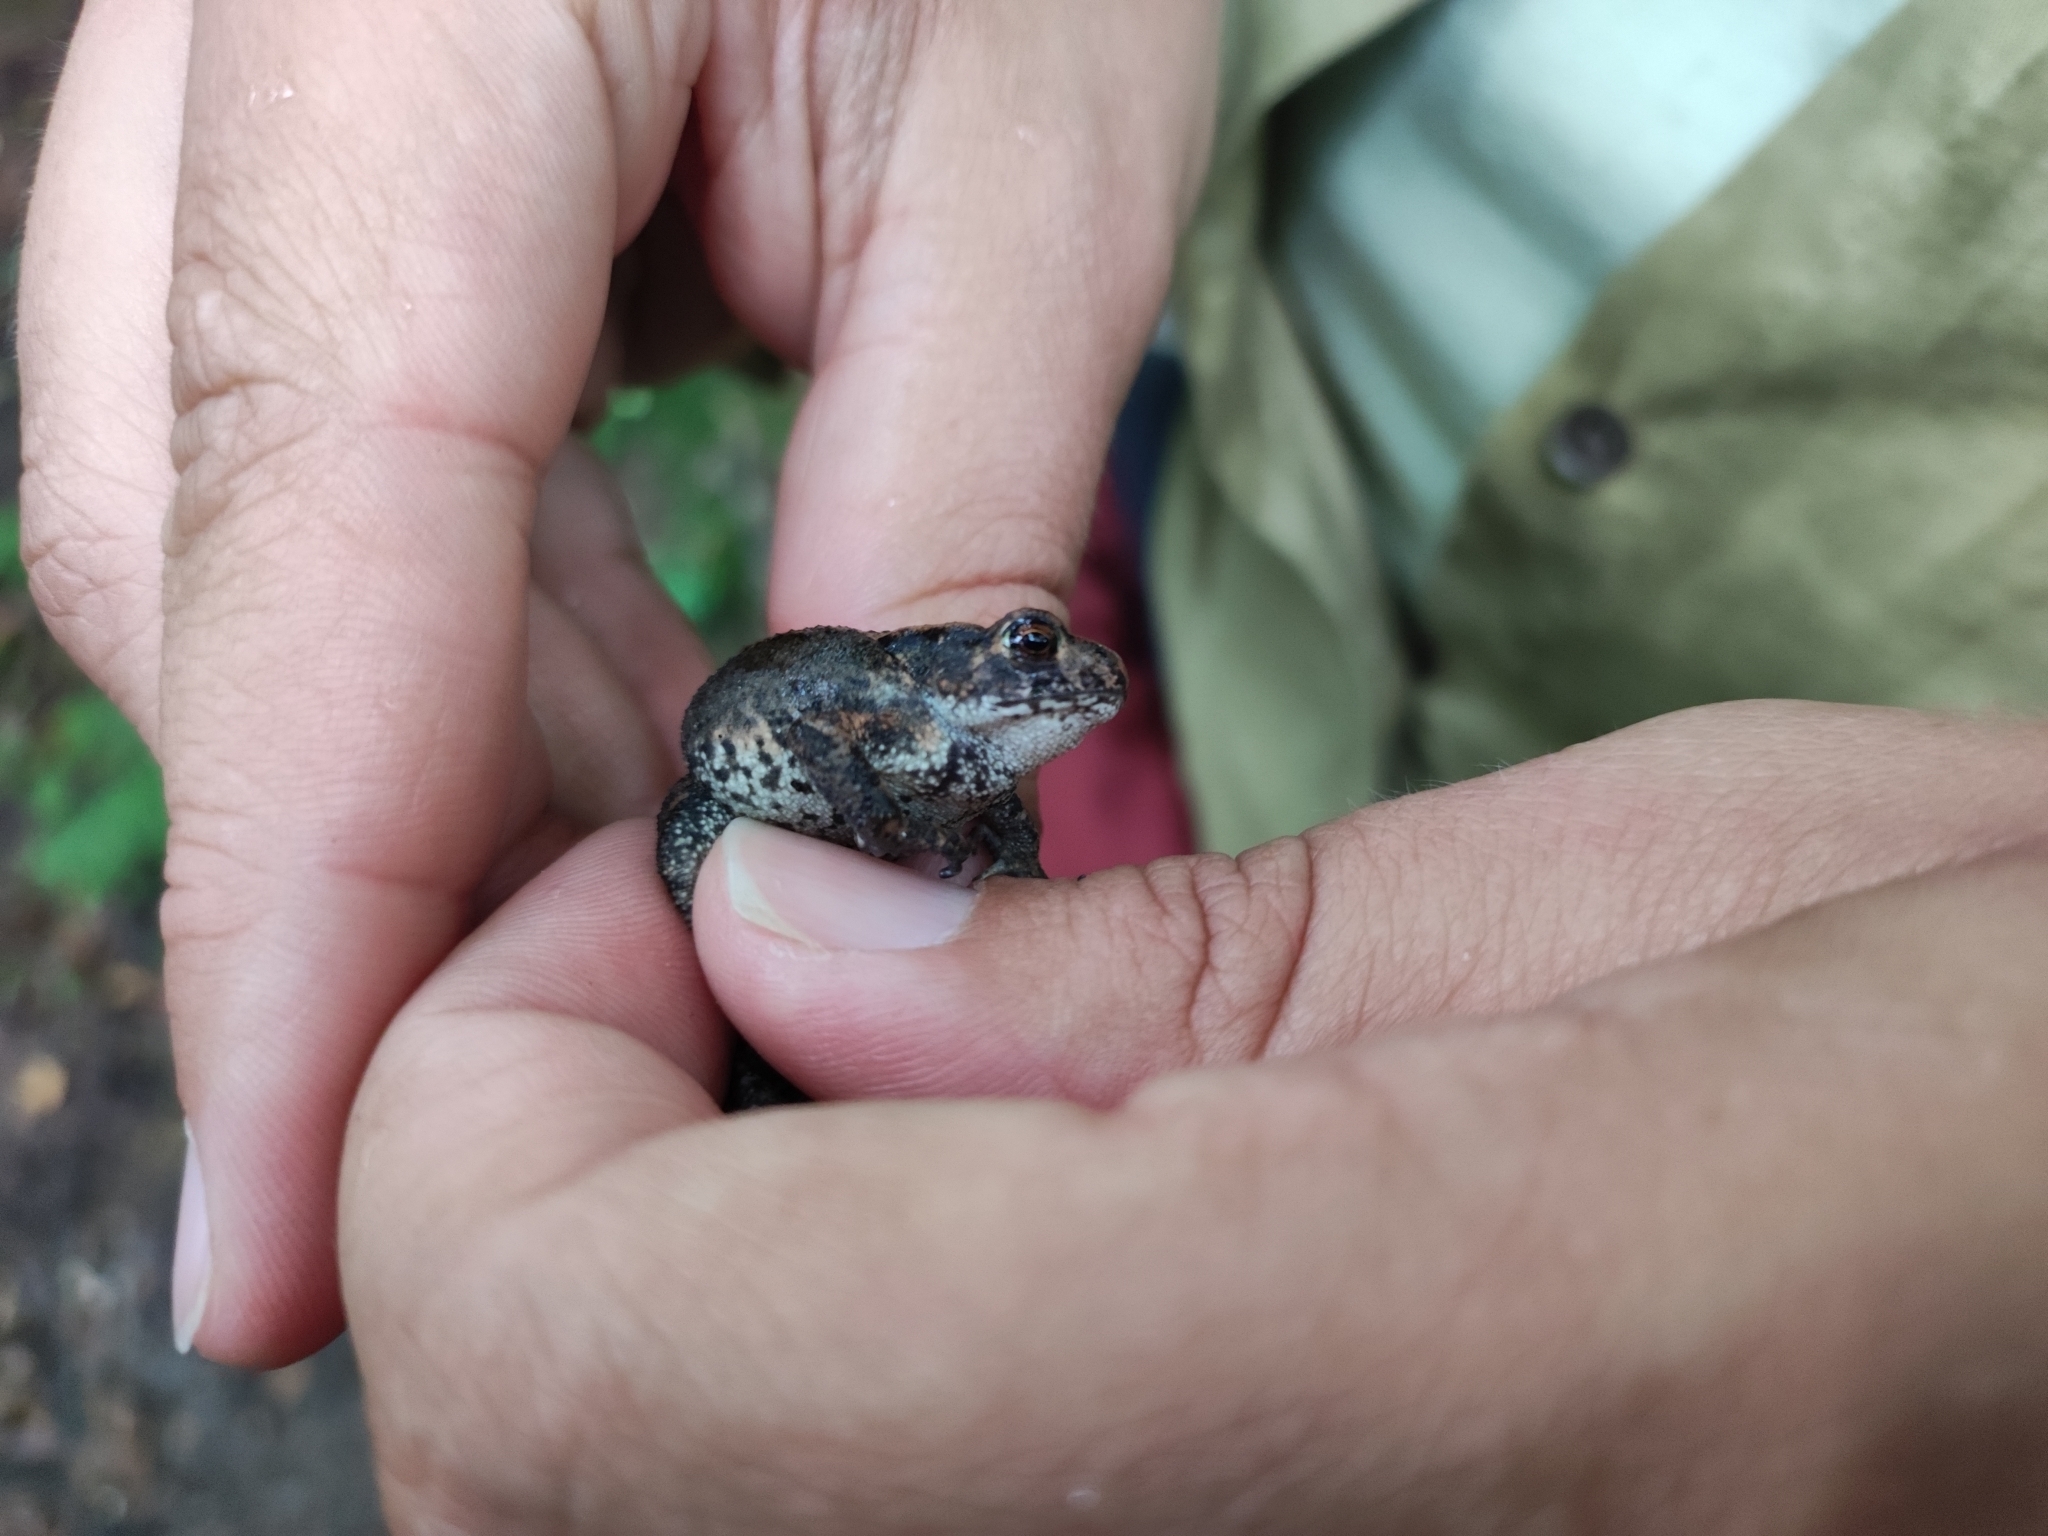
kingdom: Animalia
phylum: Chordata
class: Amphibia
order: Anura
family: Bufonidae
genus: Bufo
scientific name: Bufo gargarizans
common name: Asiatic toad
